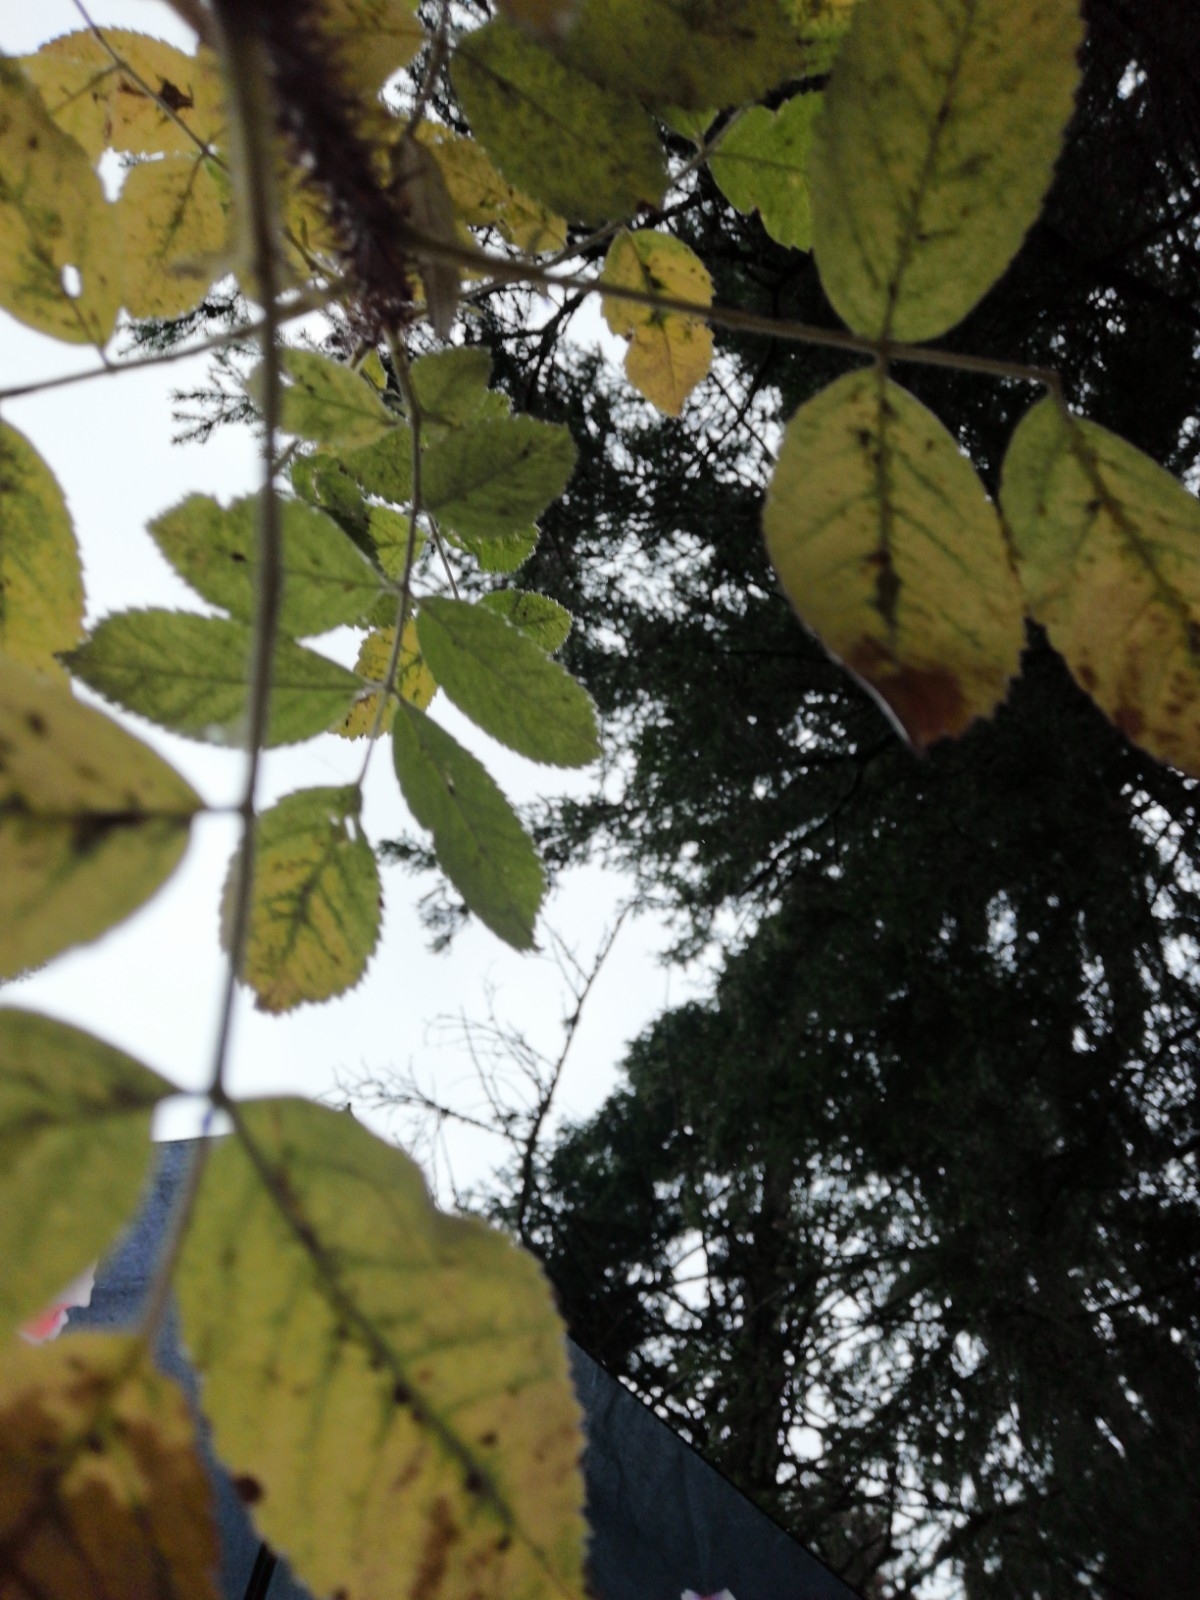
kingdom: Plantae
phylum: Tracheophyta
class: Magnoliopsida
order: Rosales
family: Rosaceae
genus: Rosa
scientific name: Rosa acicularis
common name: Prickly rose
